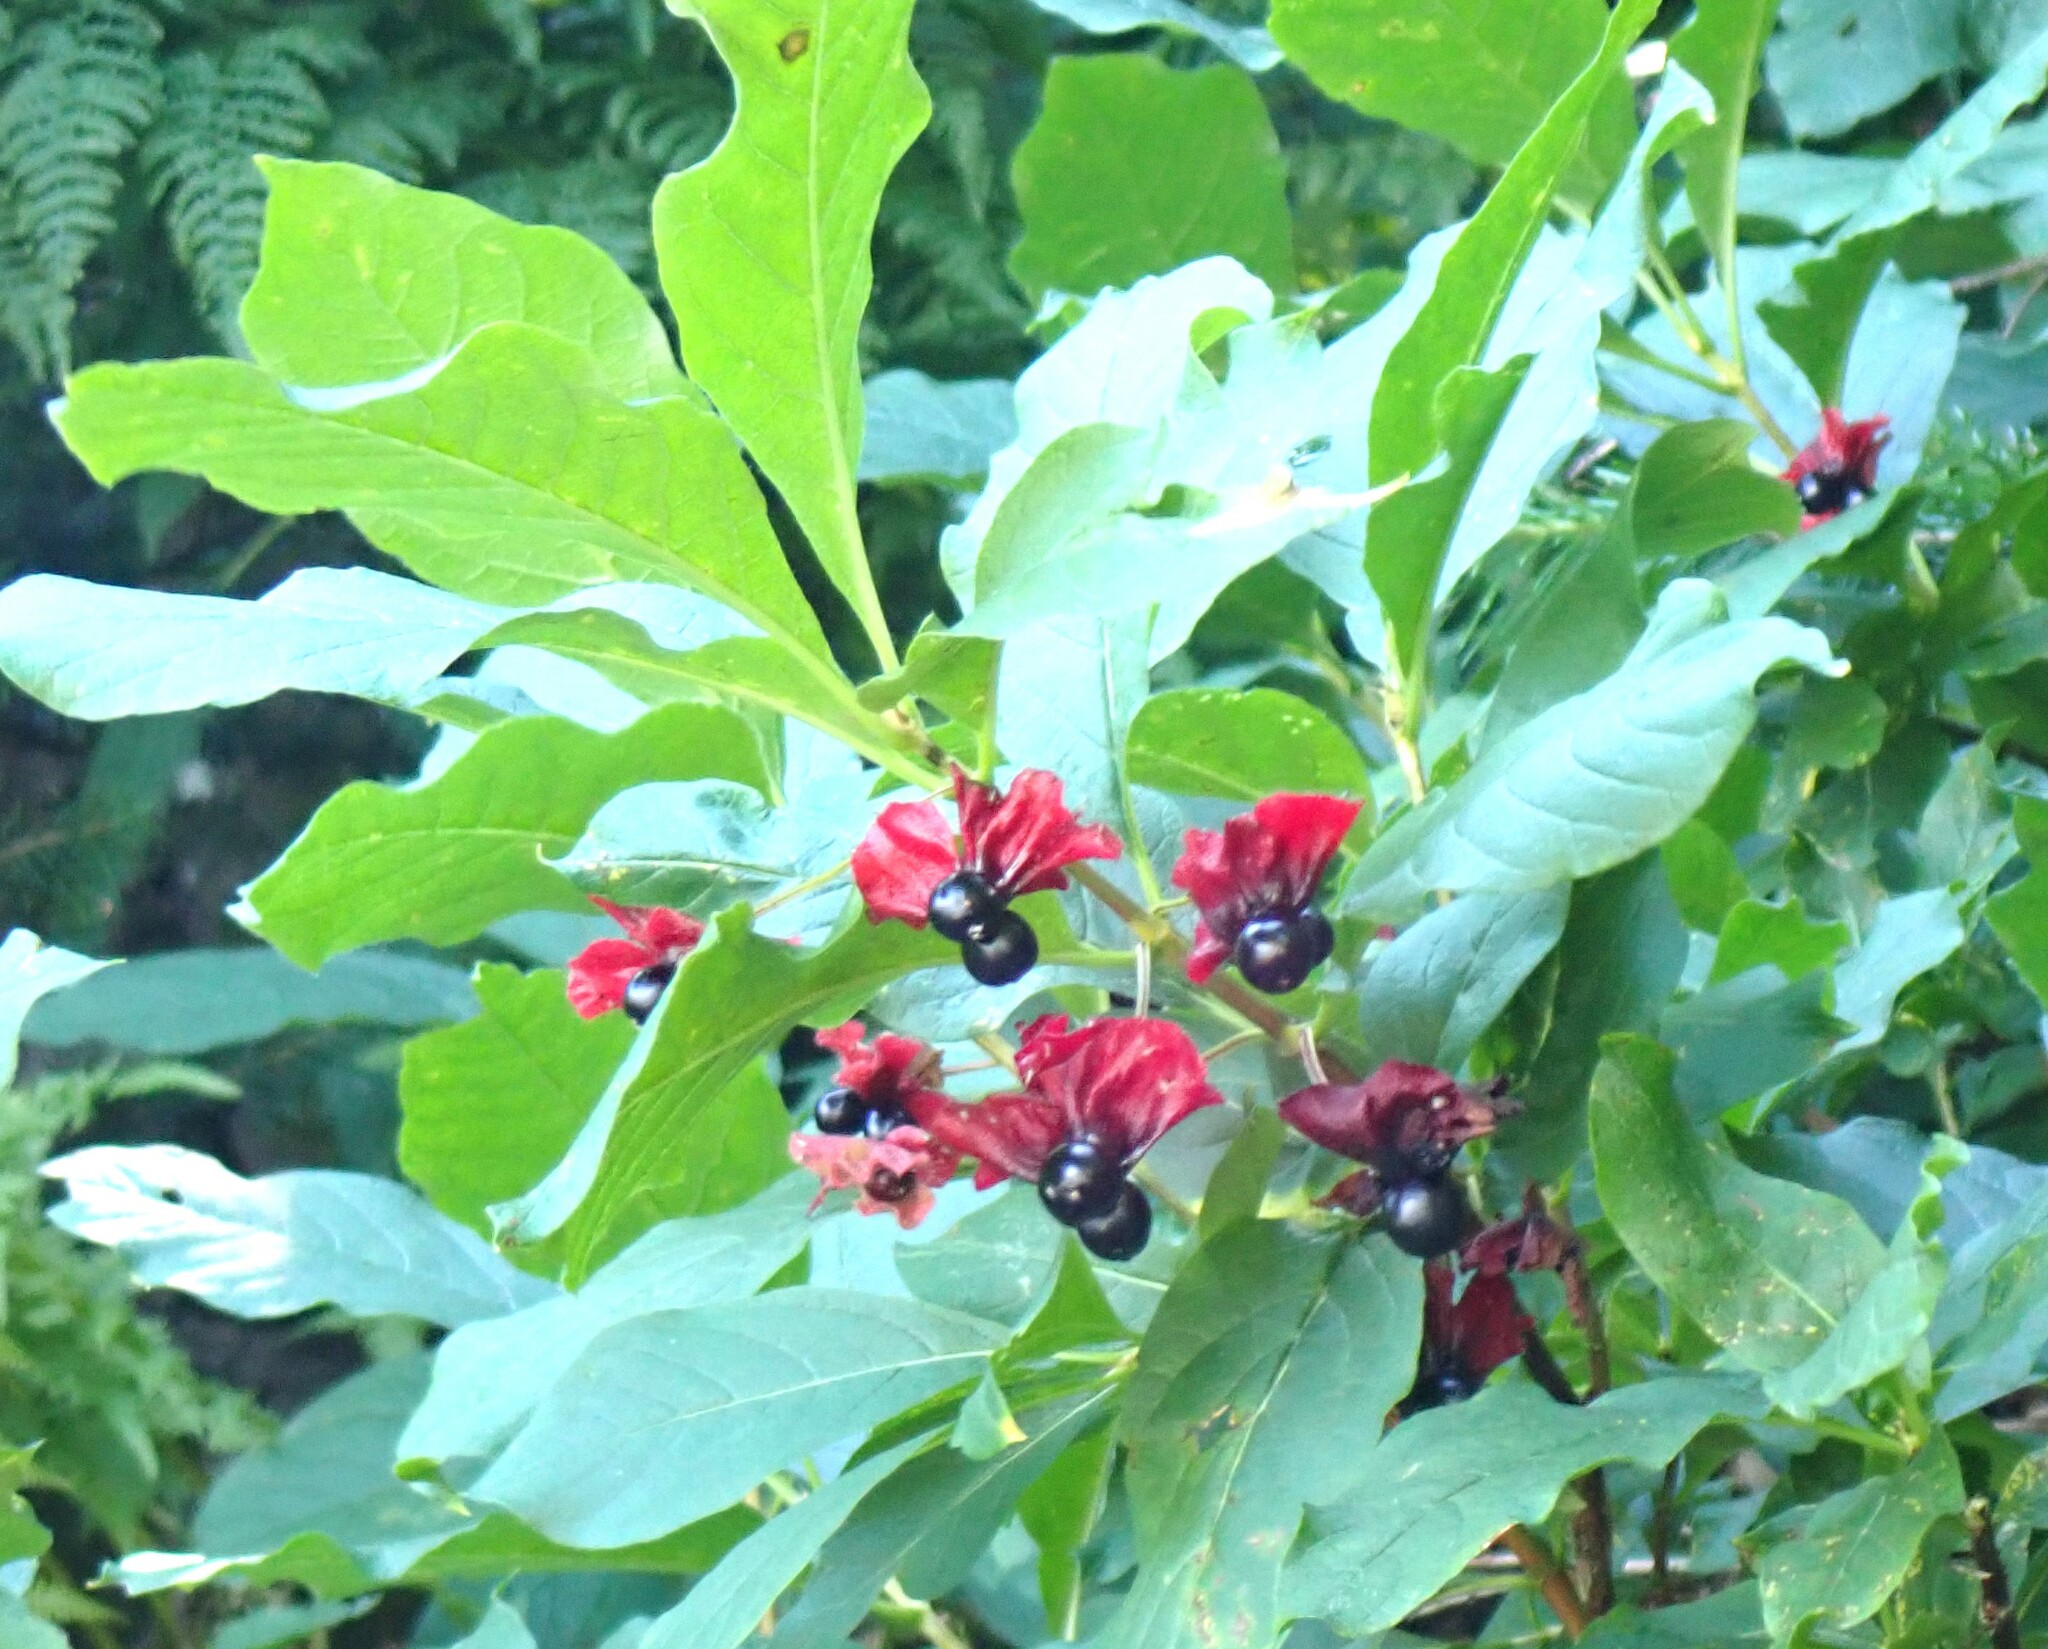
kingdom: Plantae
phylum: Tracheophyta
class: Magnoliopsida
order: Dipsacales
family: Caprifoliaceae
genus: Lonicera
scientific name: Lonicera involucrata
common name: Californian honeysuckle
